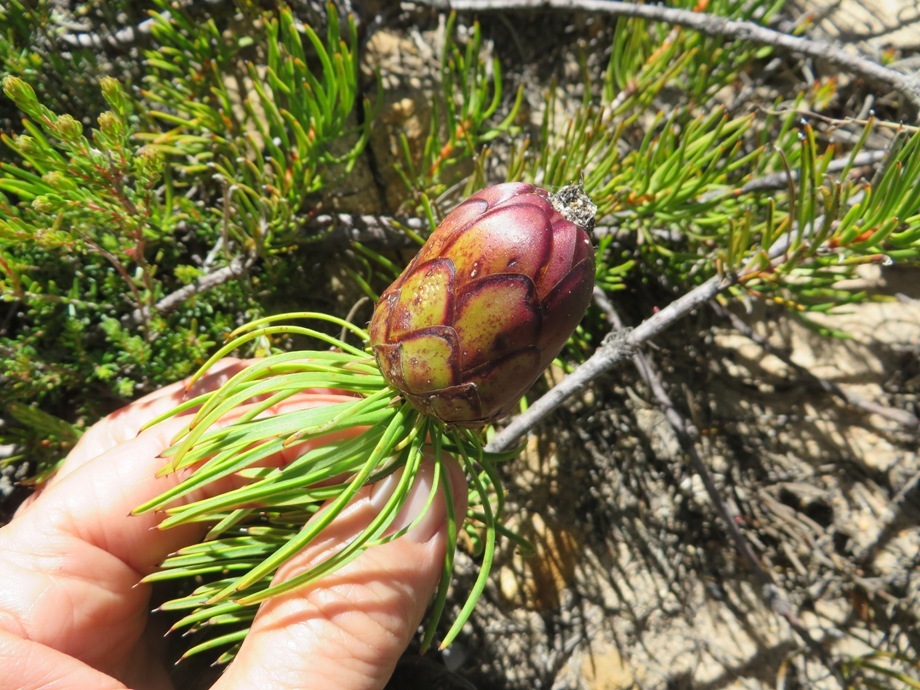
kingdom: Plantae
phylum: Tracheophyta
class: Magnoliopsida
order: Proteales
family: Proteaceae
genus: Protea
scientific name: Protea witzenbergiana
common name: Swan sugarbush
